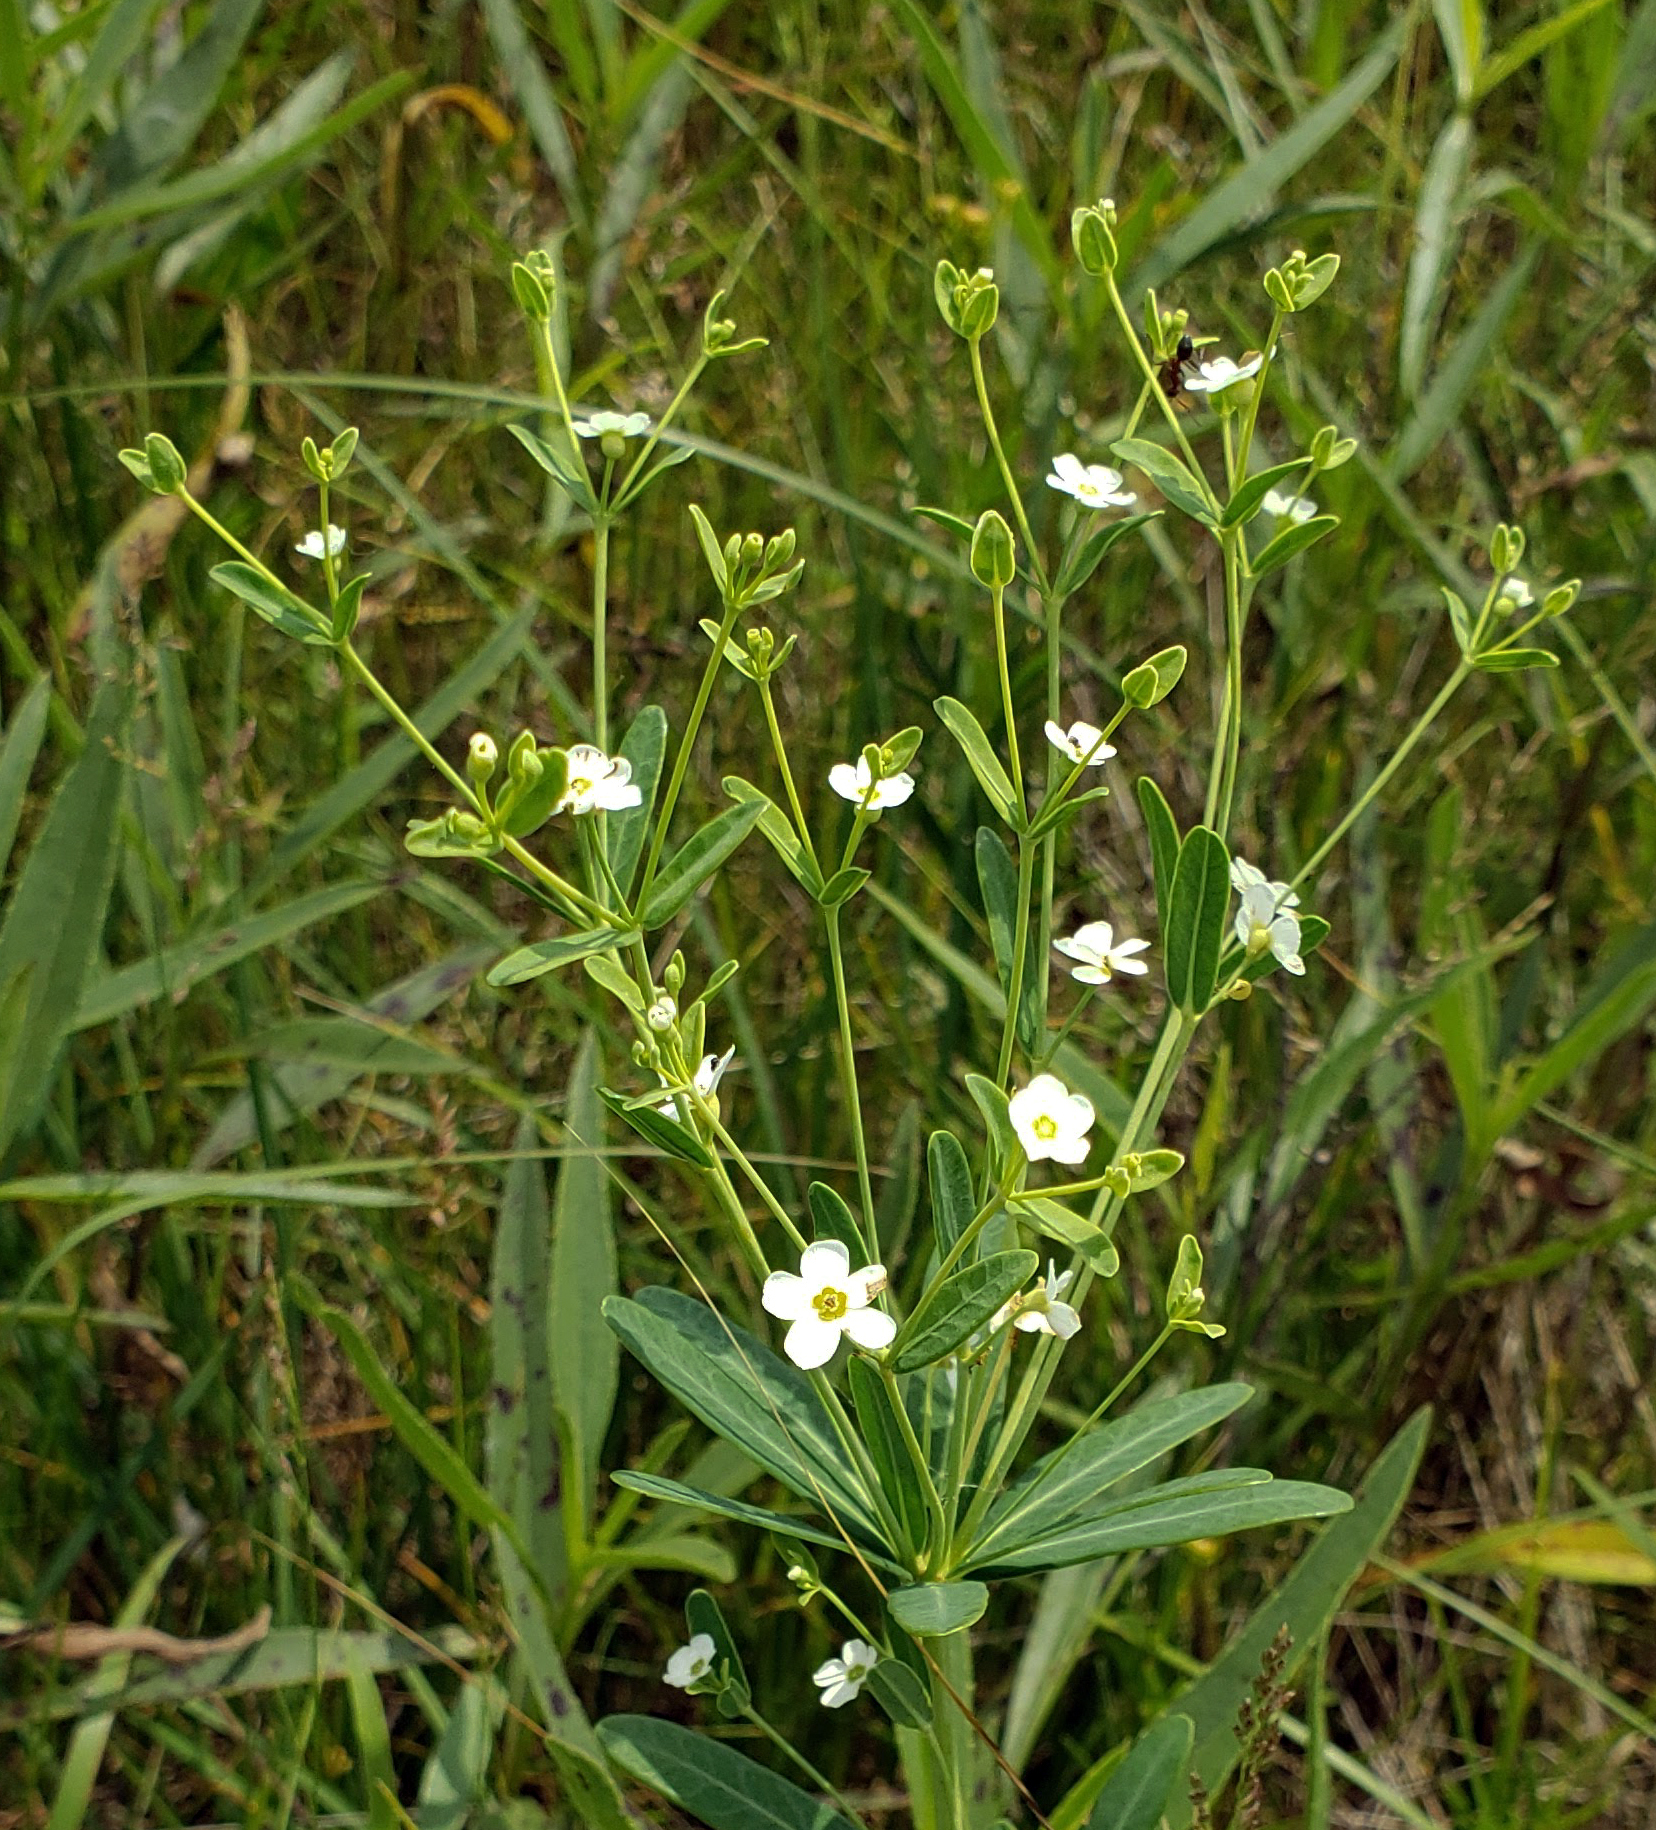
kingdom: Plantae
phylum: Tracheophyta
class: Magnoliopsida
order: Malpighiales
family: Euphorbiaceae
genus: Euphorbia
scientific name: Euphorbia corollata
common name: Flowering spurge
